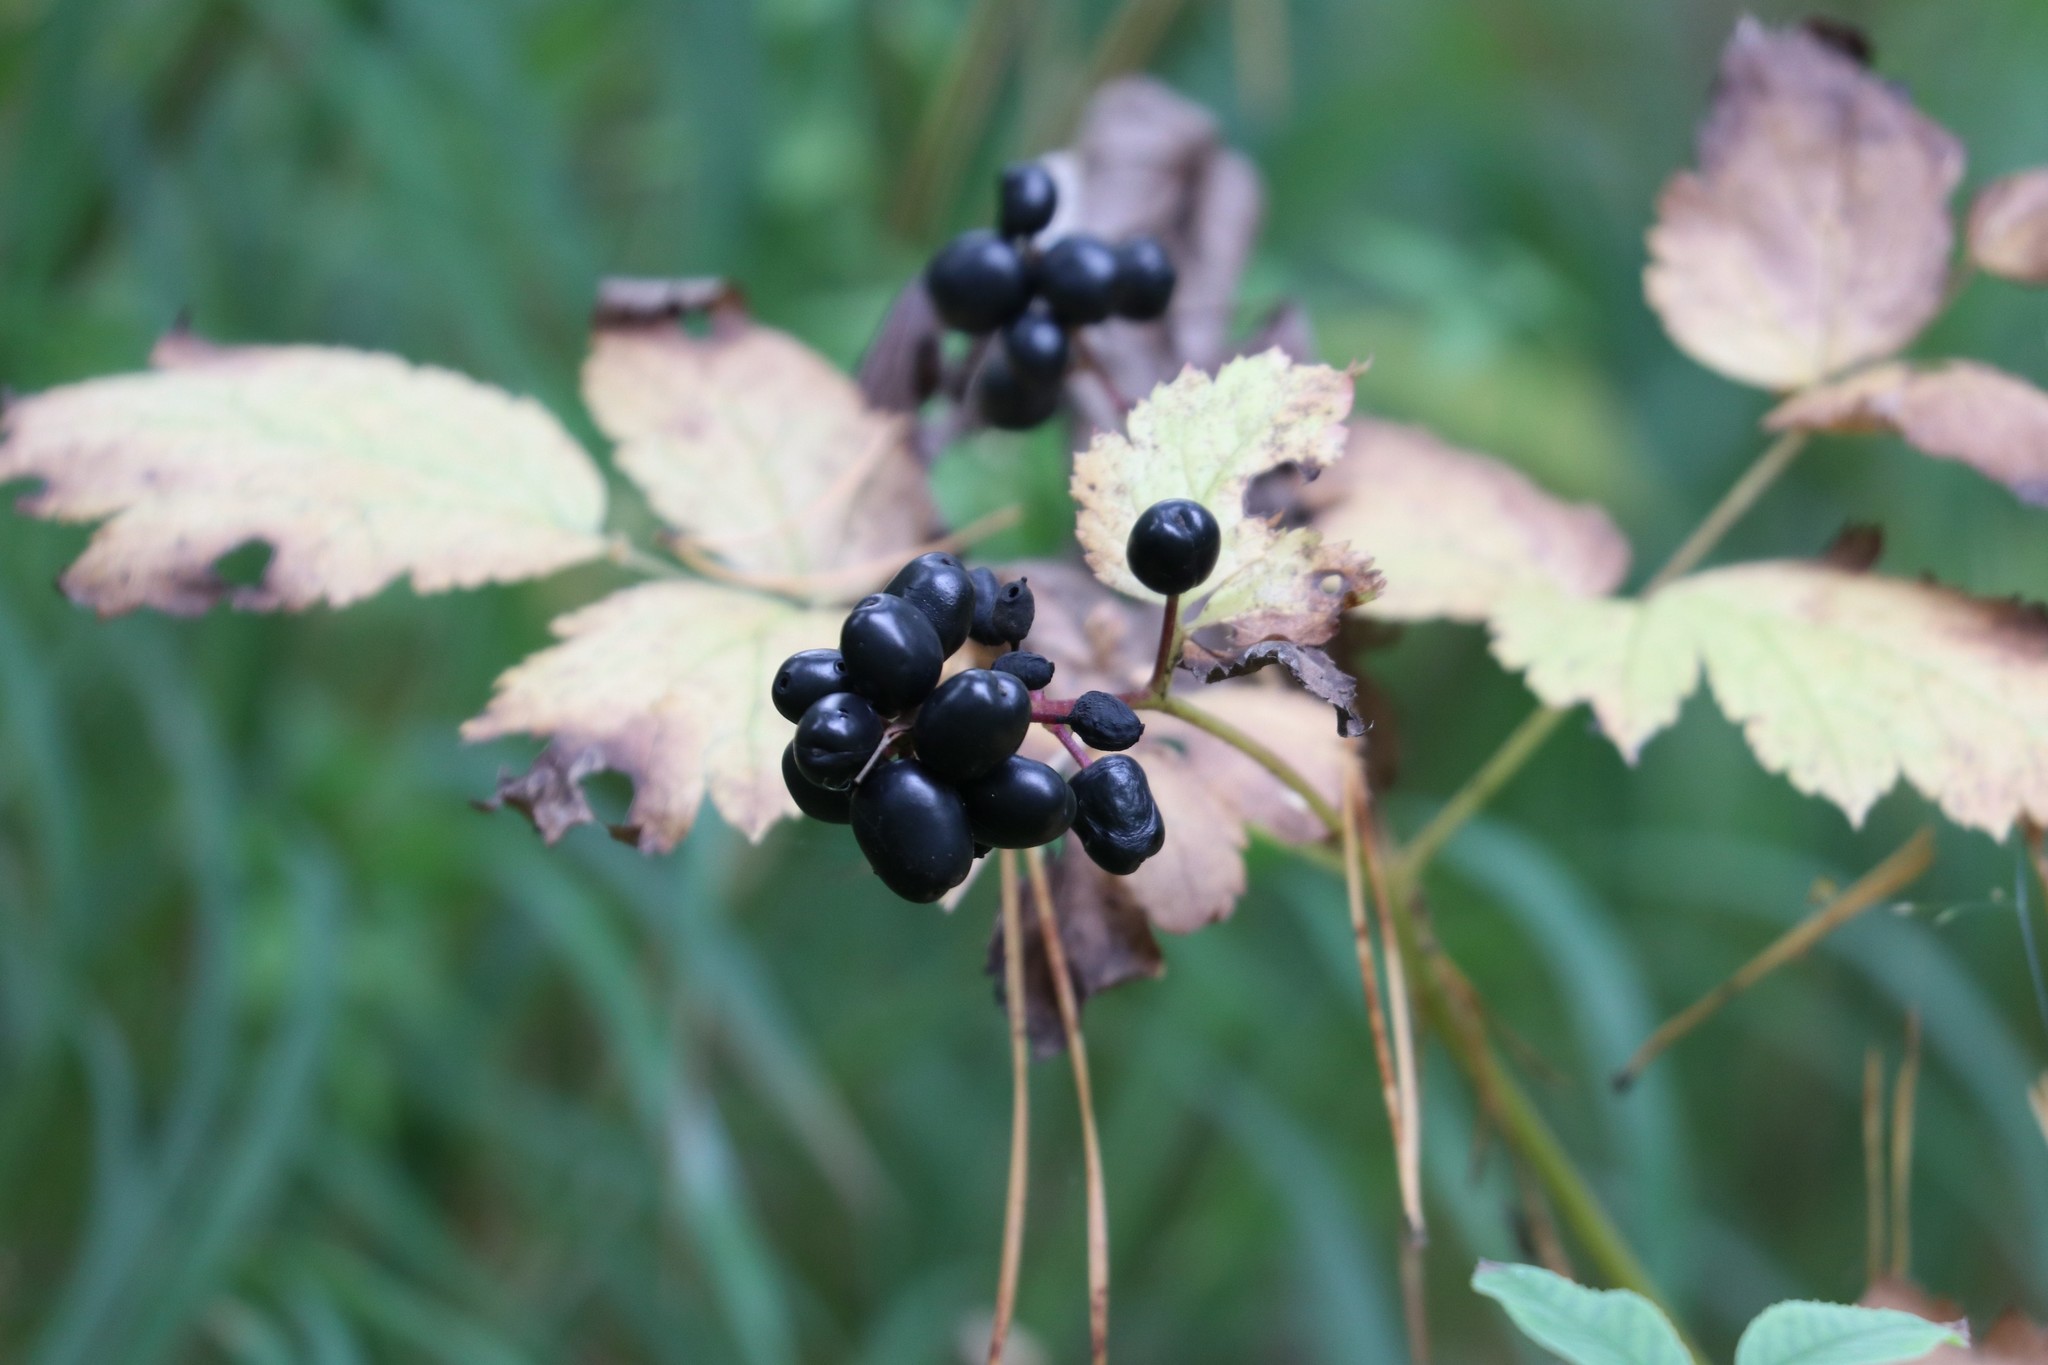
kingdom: Plantae
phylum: Tracheophyta
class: Magnoliopsida
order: Ranunculales
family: Ranunculaceae
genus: Actaea
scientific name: Actaea spicata
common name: Baneberry
